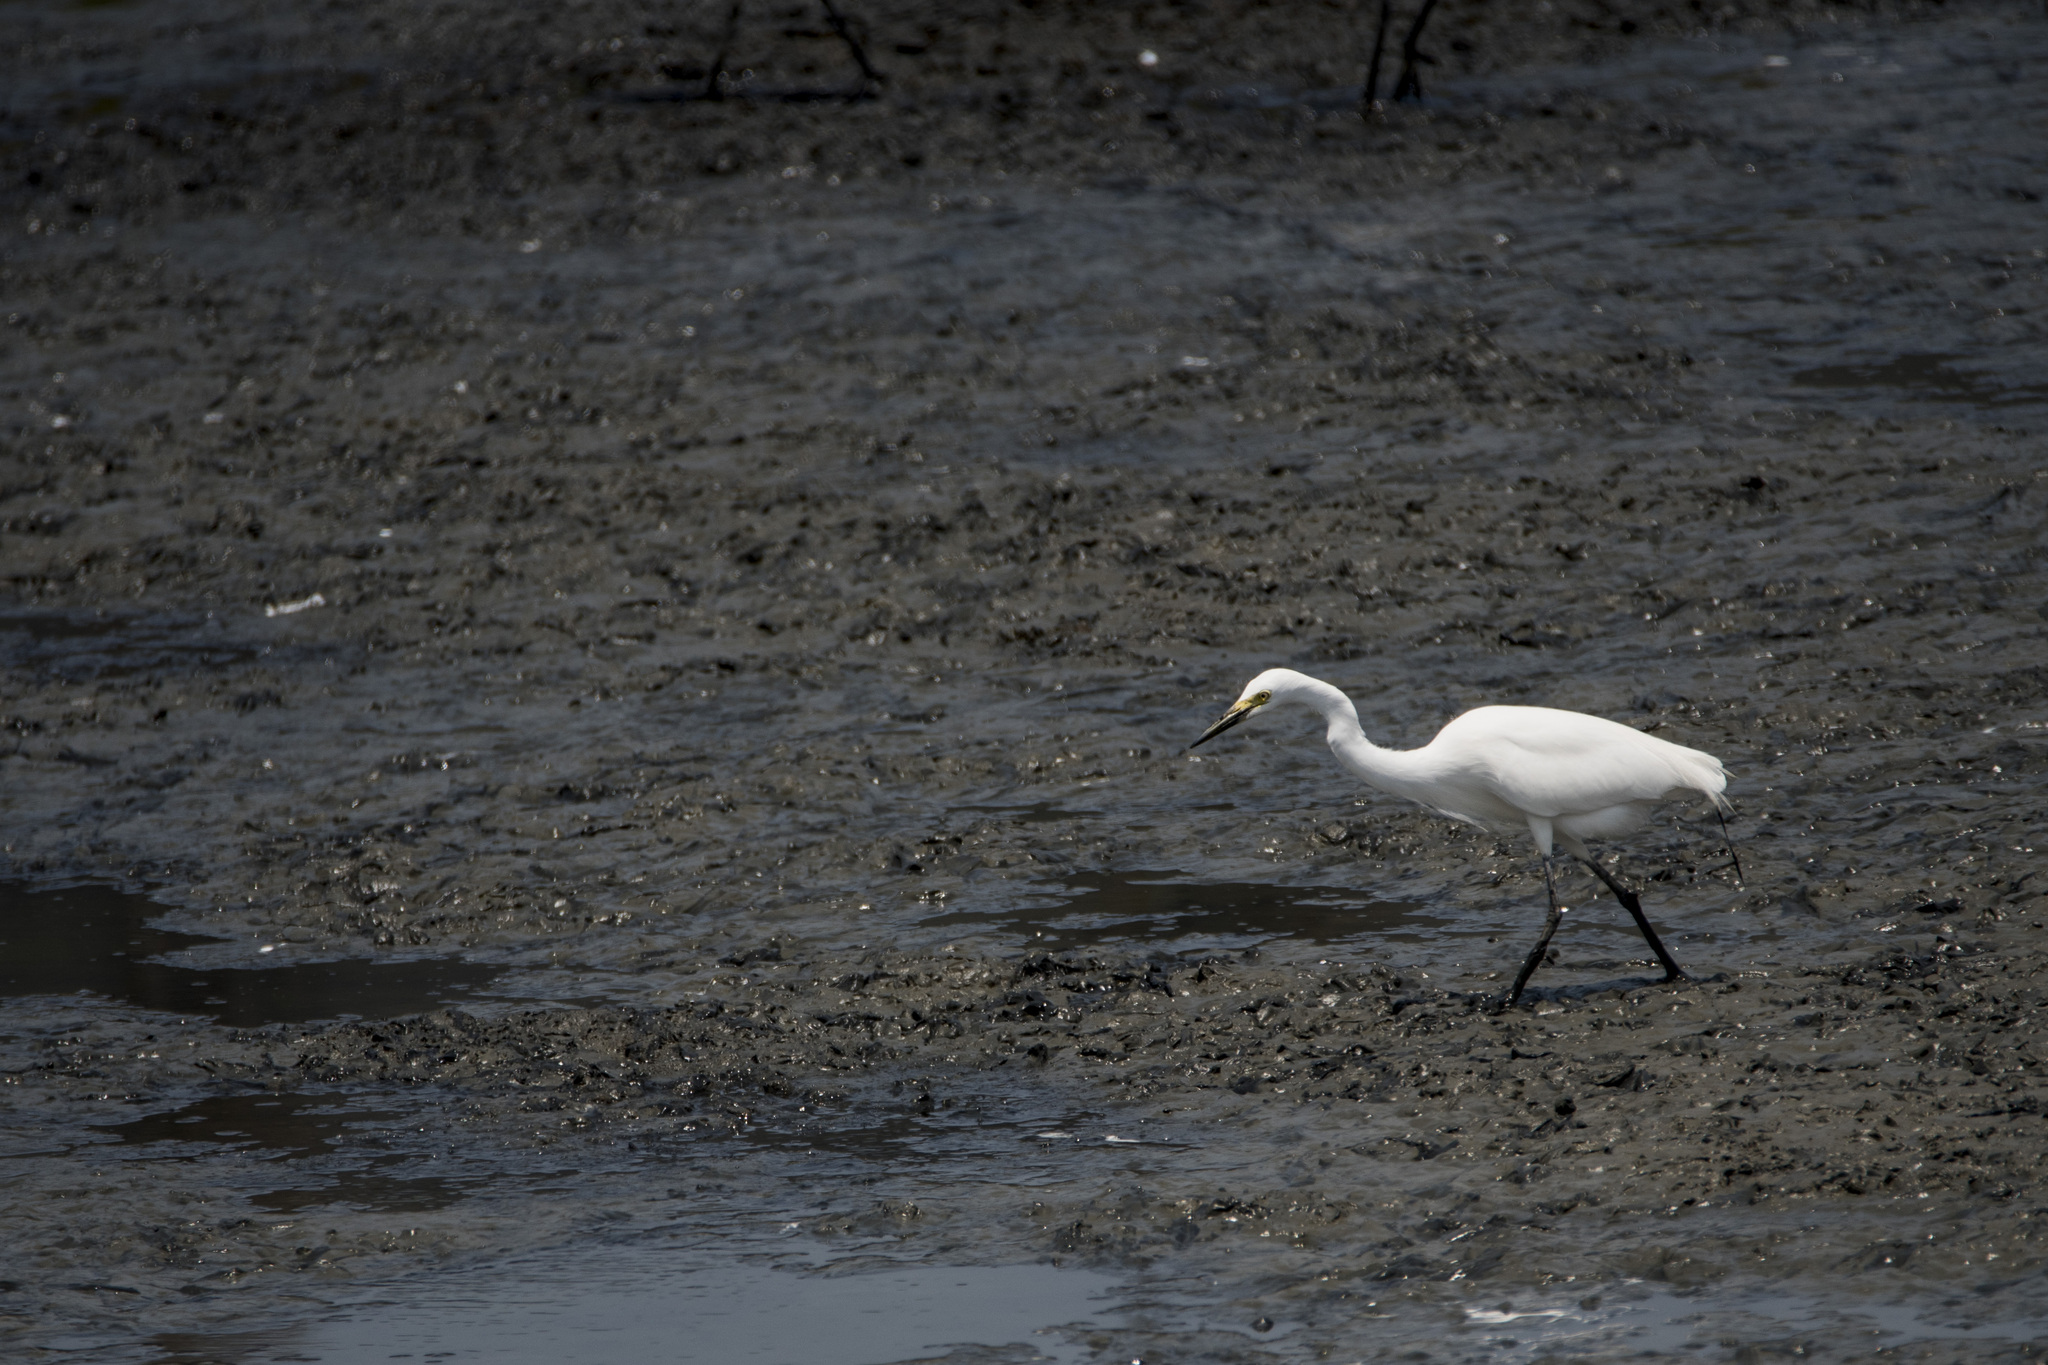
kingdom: Animalia
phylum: Chordata
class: Aves
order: Pelecaniformes
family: Ardeidae
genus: Egretta
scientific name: Egretta intermedia
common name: Intermediate egret
